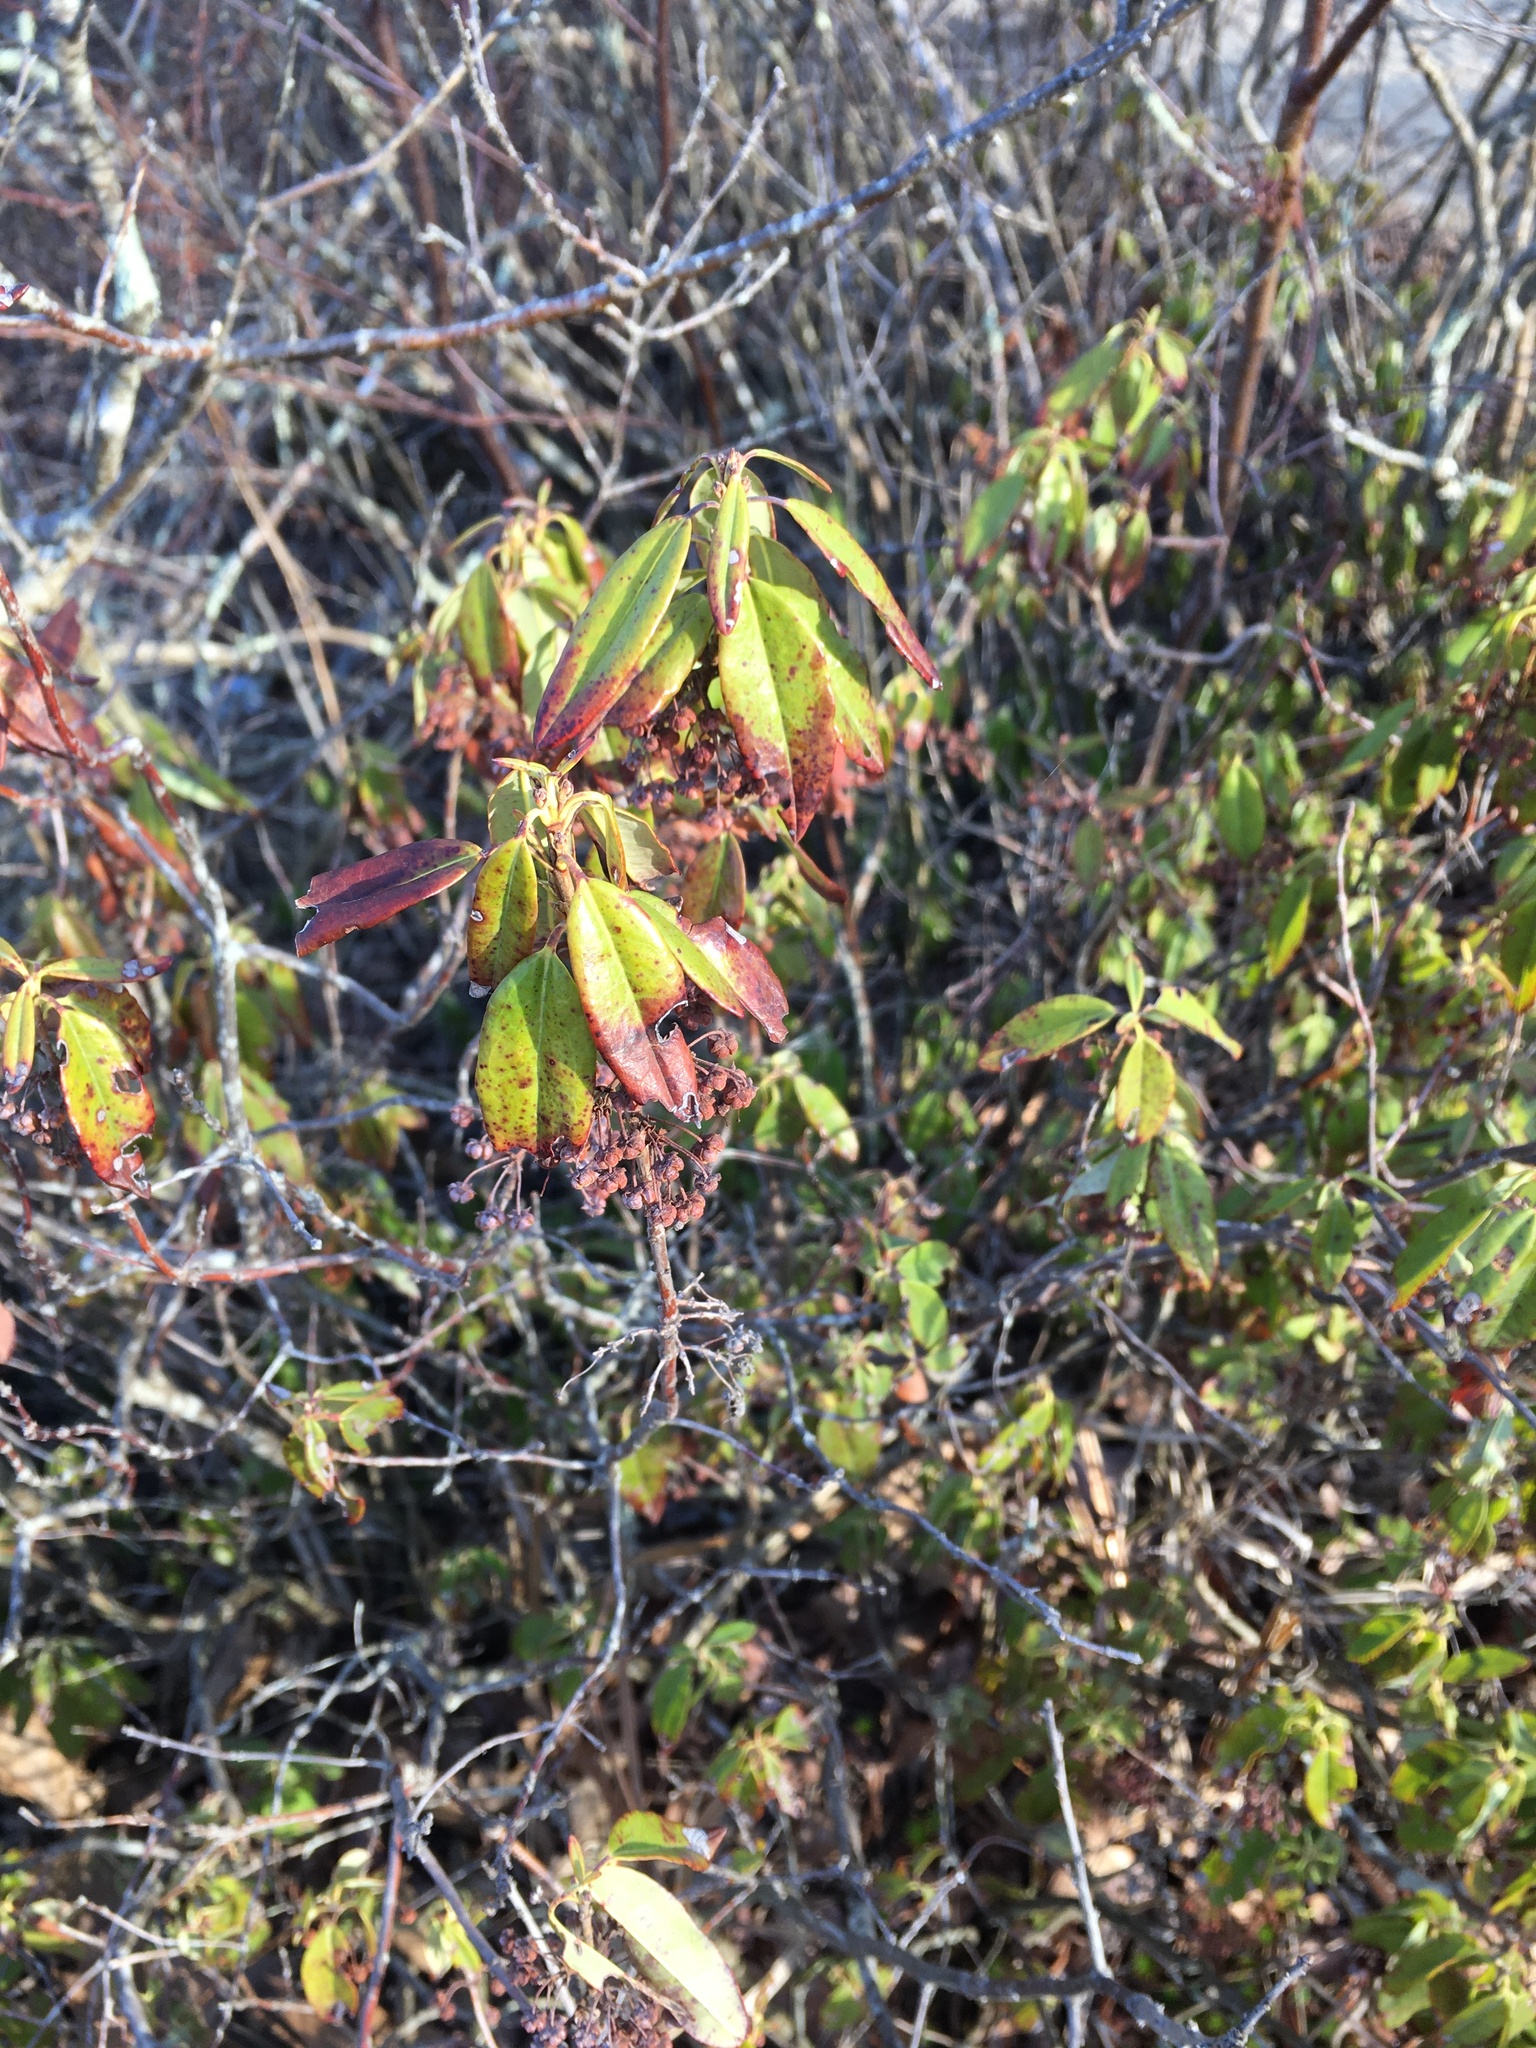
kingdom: Plantae
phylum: Tracheophyta
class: Magnoliopsida
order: Ericales
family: Ericaceae
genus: Kalmia
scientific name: Kalmia angustifolia
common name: Sheep-laurel
